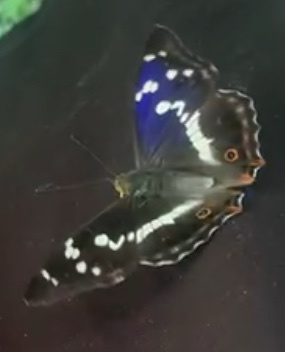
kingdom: Animalia
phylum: Arthropoda
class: Insecta
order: Lepidoptera
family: Nymphalidae
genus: Apatura
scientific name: Apatura iris
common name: Purple emperor
